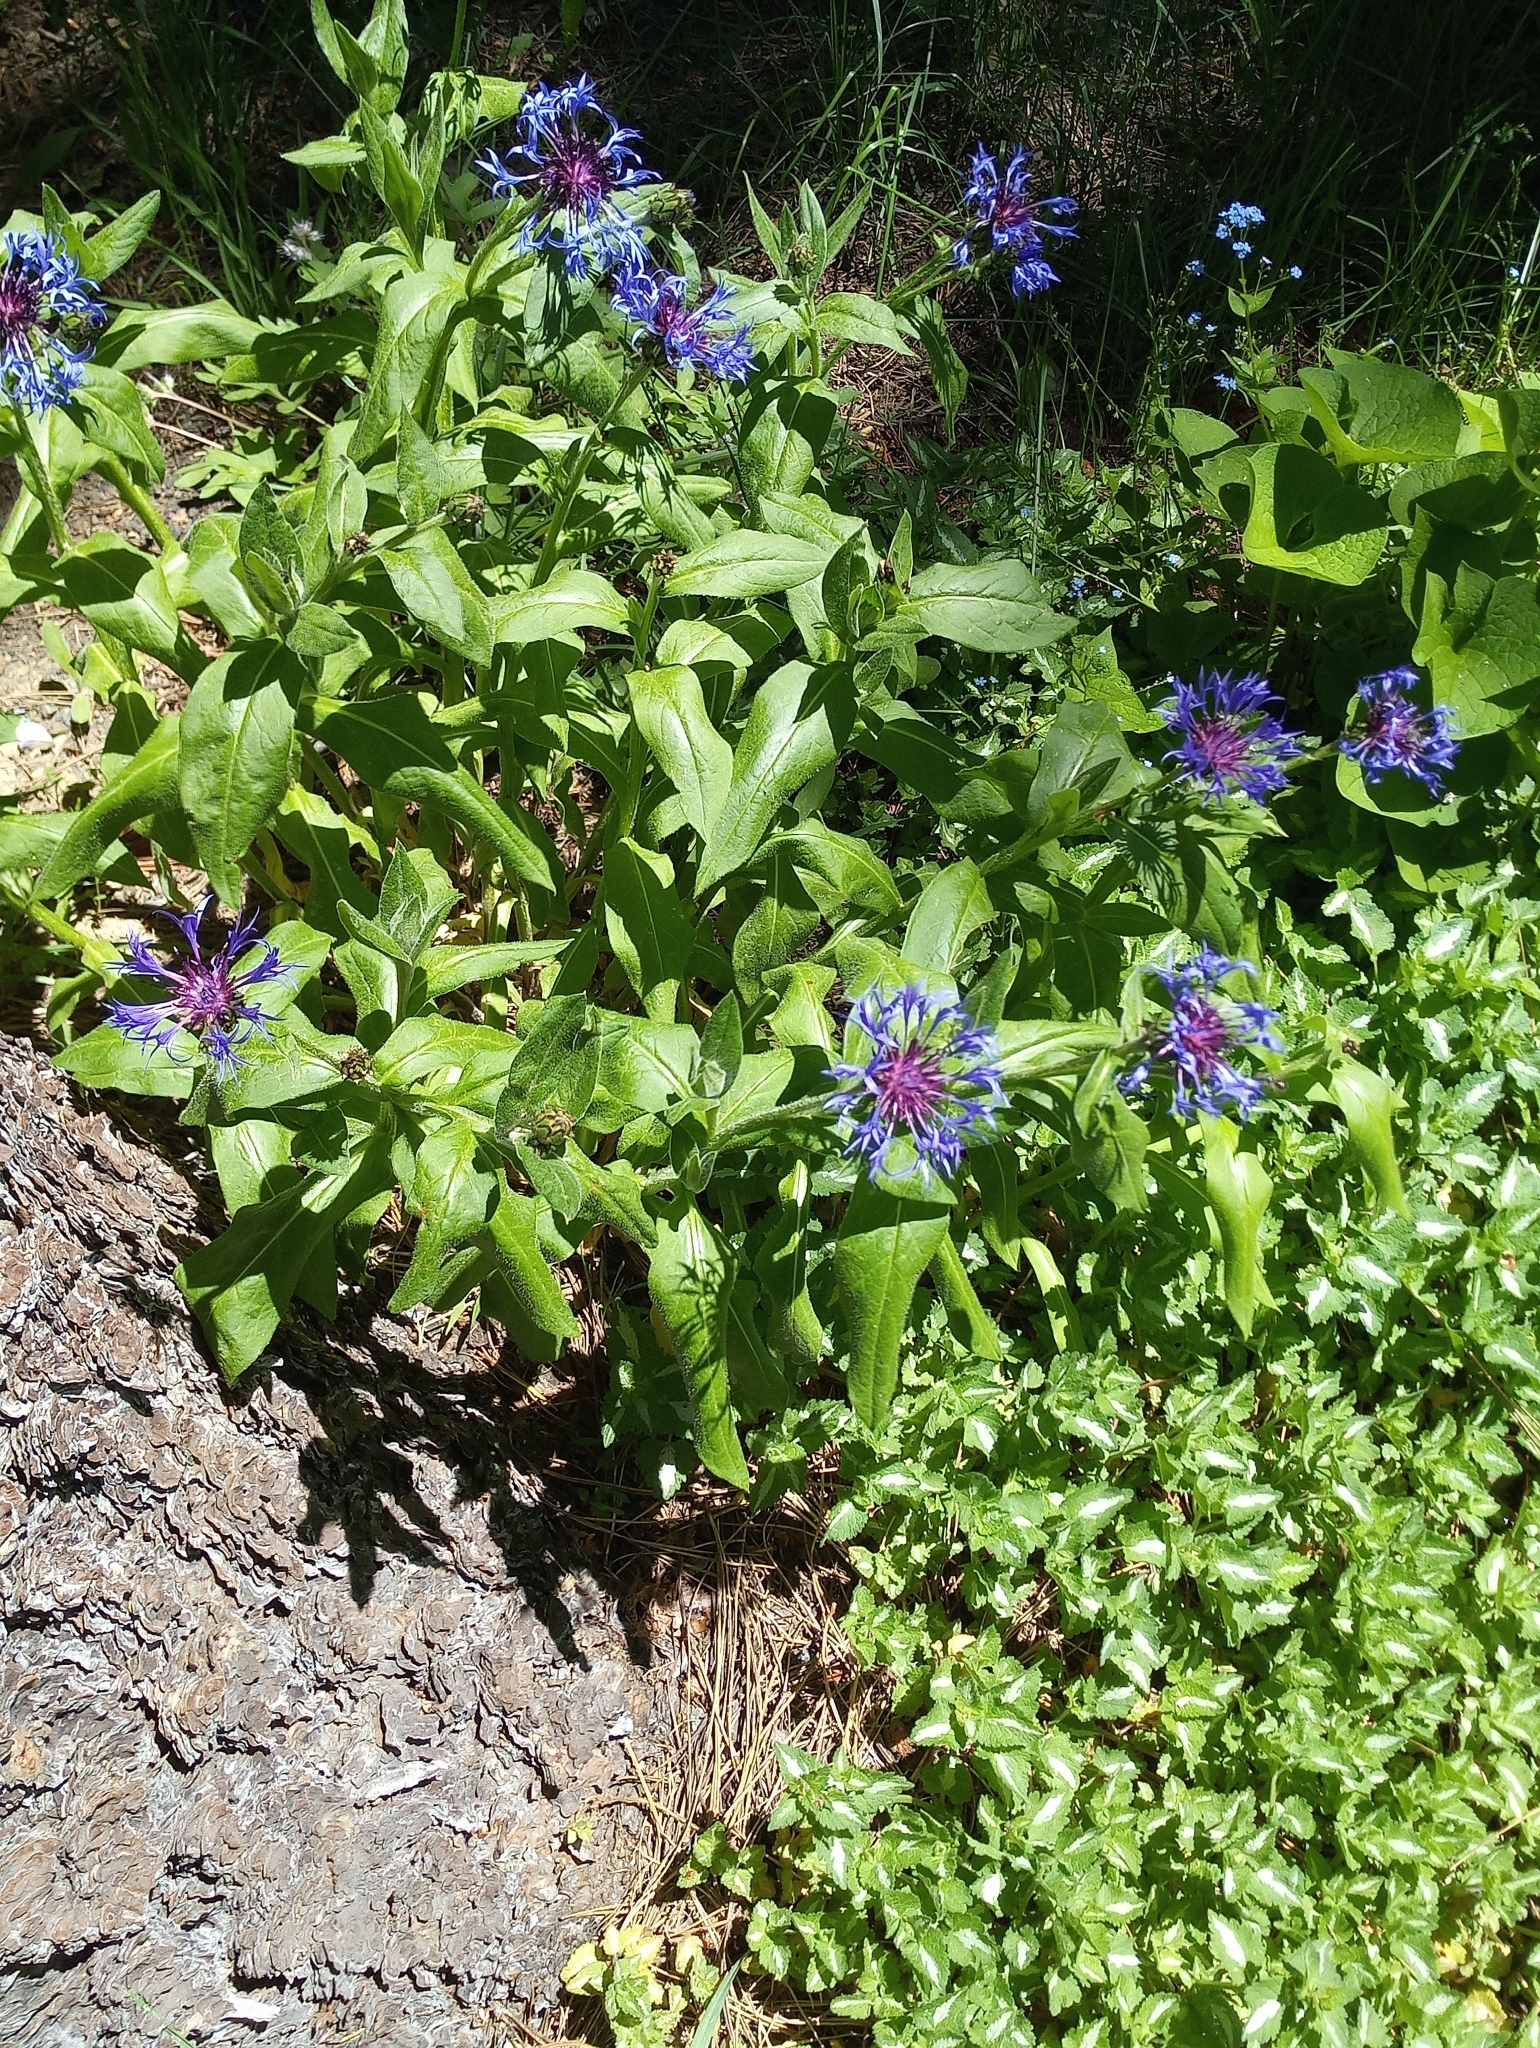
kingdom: Plantae
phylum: Tracheophyta
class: Magnoliopsida
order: Asterales
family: Asteraceae
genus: Centaurea
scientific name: Centaurea montana
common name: Perennial cornflower
